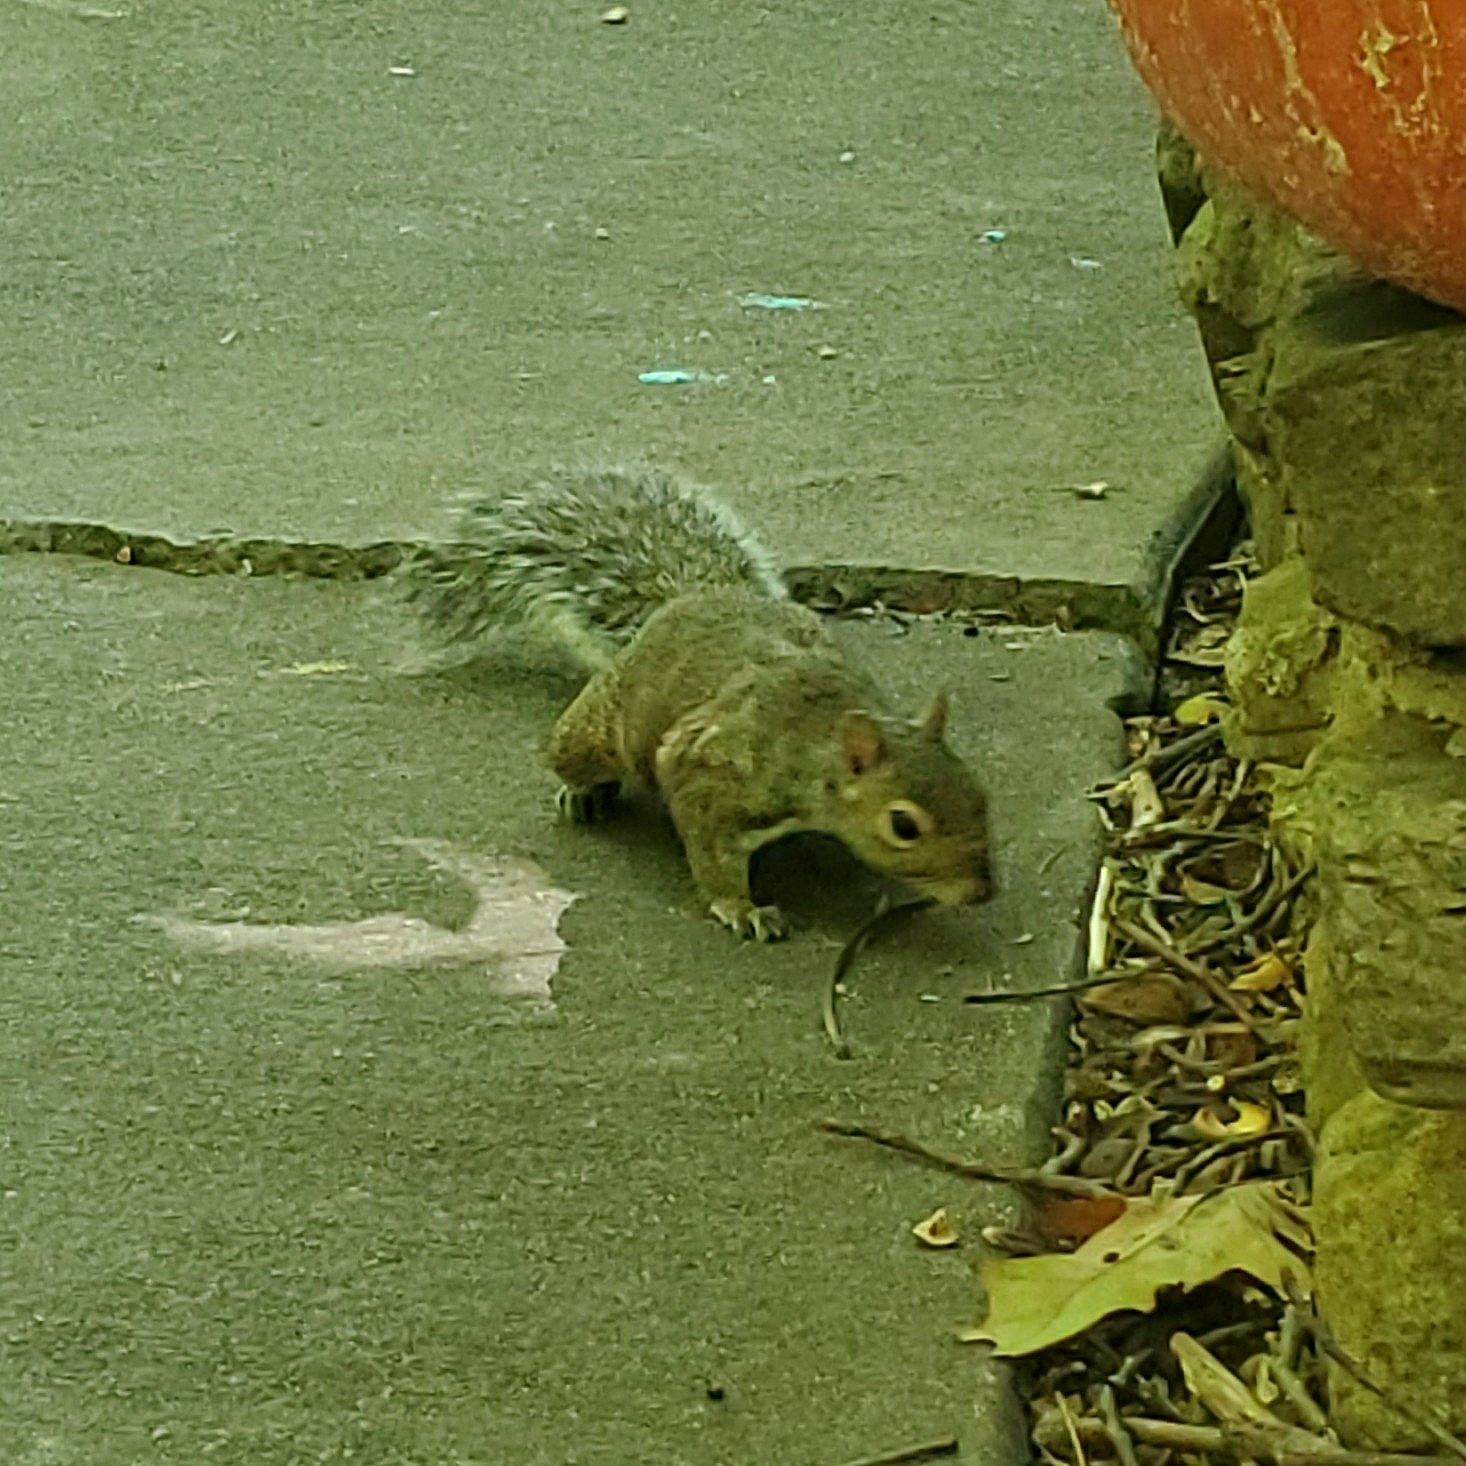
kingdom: Animalia
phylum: Chordata
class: Mammalia
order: Rodentia
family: Sciuridae
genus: Sciurus
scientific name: Sciurus carolinensis
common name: Eastern gray squirrel
